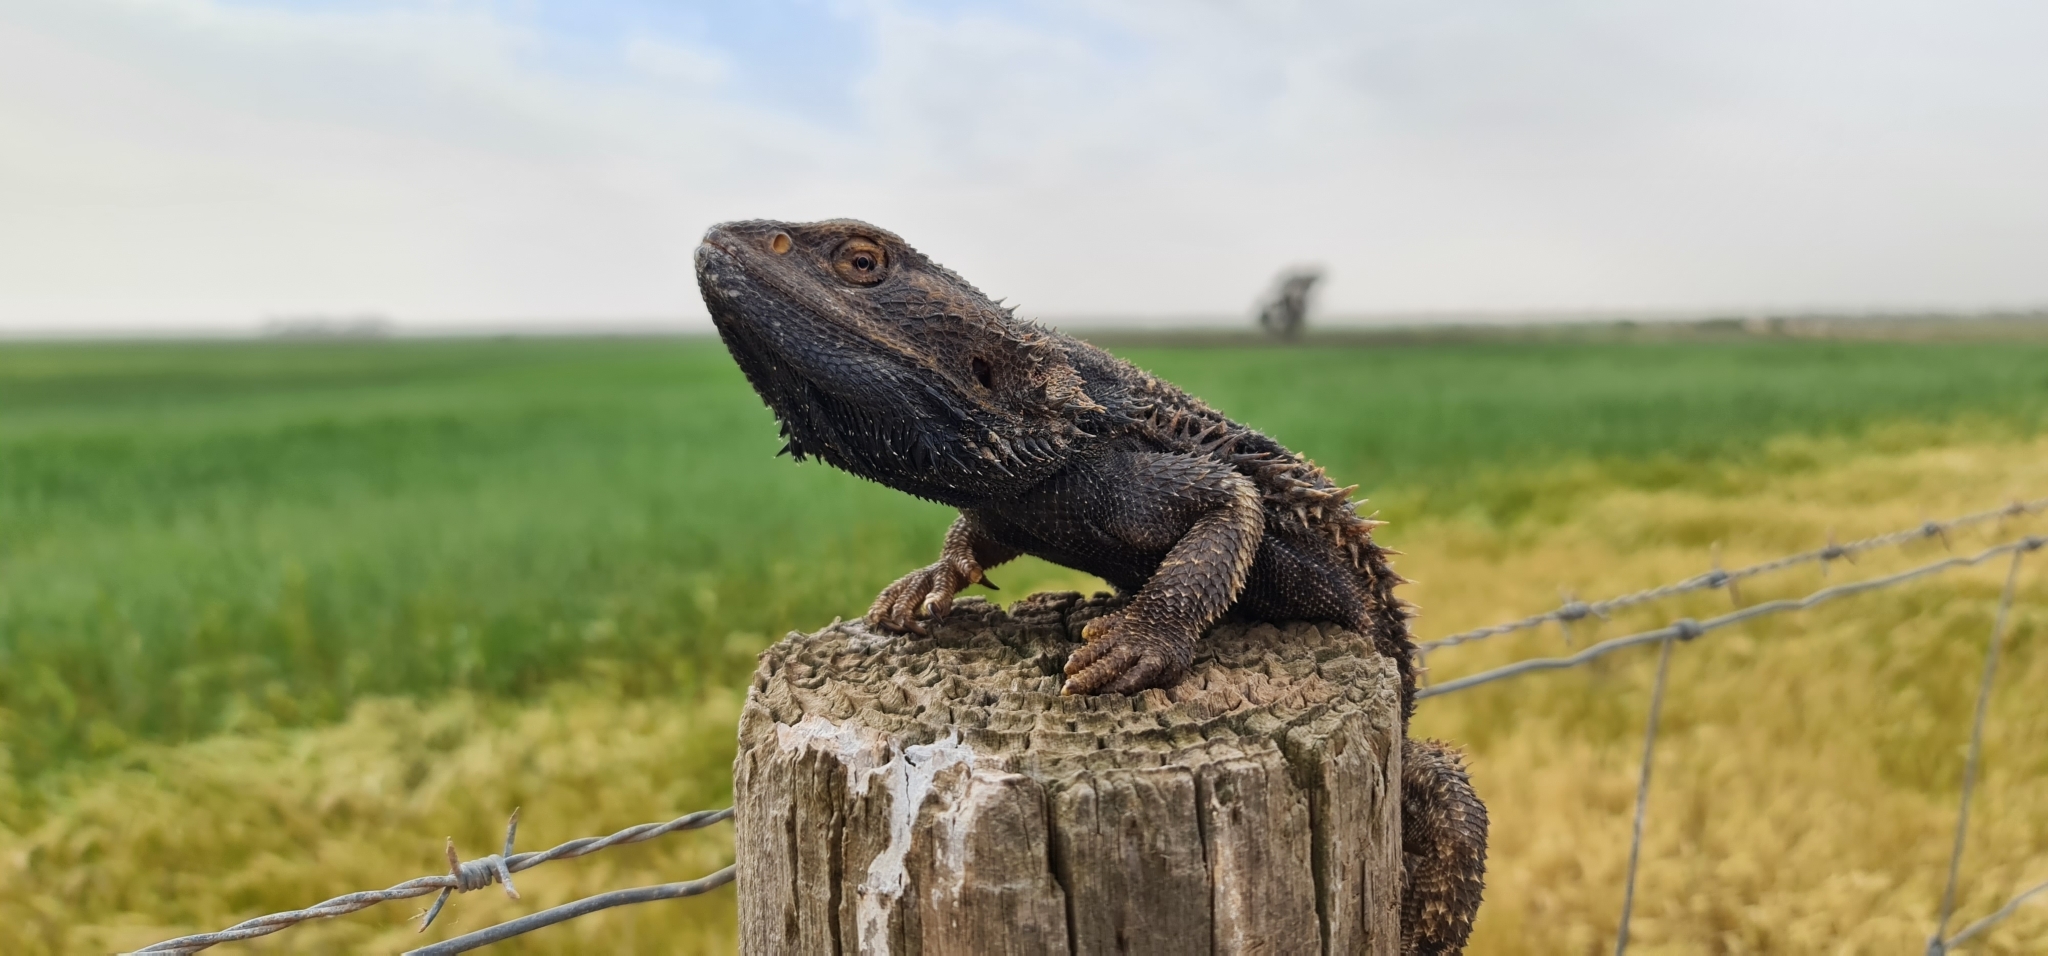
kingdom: Animalia
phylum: Chordata
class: Squamata
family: Agamidae
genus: Pogona
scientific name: Pogona vitticeps
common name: Central bearded dragon
